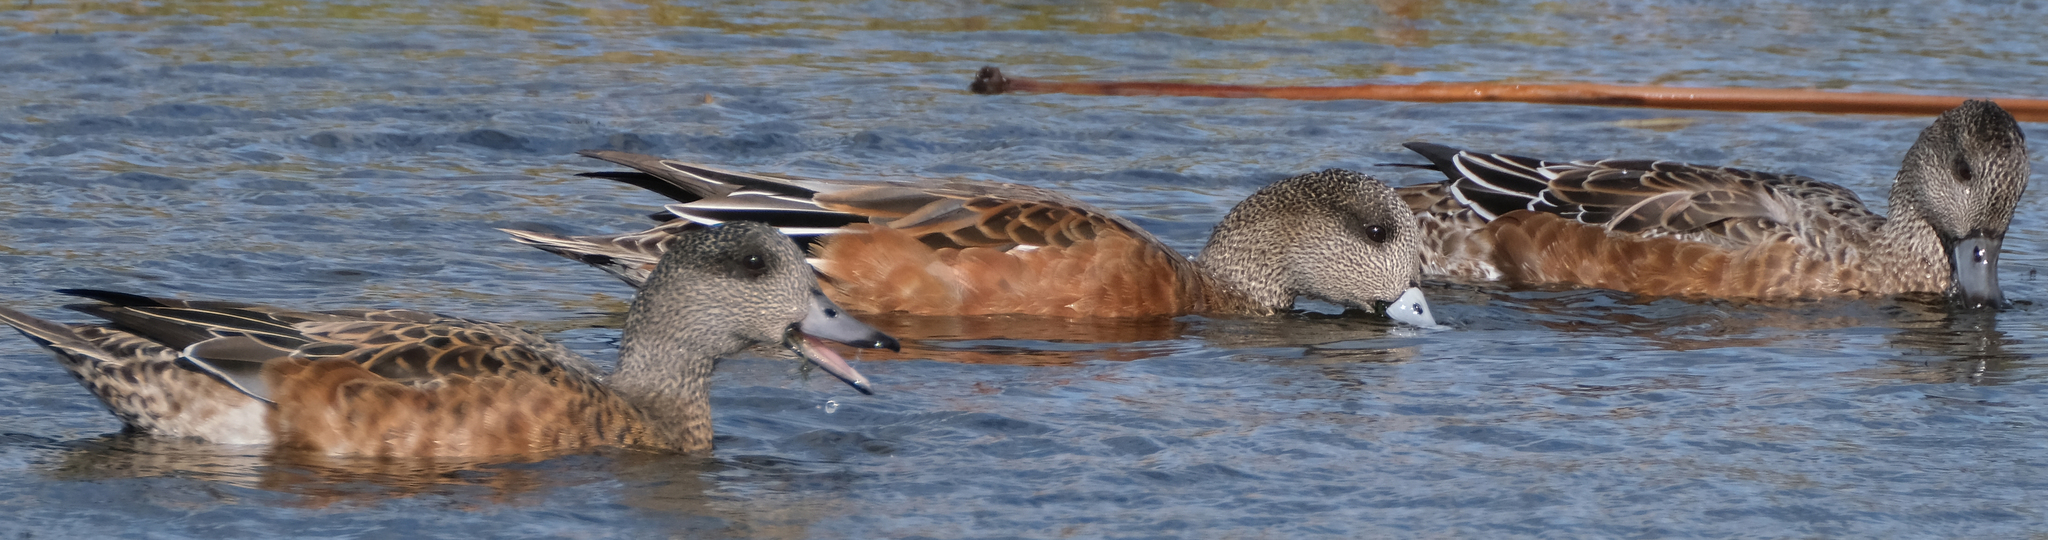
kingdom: Animalia
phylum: Chordata
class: Aves
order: Anseriformes
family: Anatidae
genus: Mareca
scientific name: Mareca americana
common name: American wigeon
